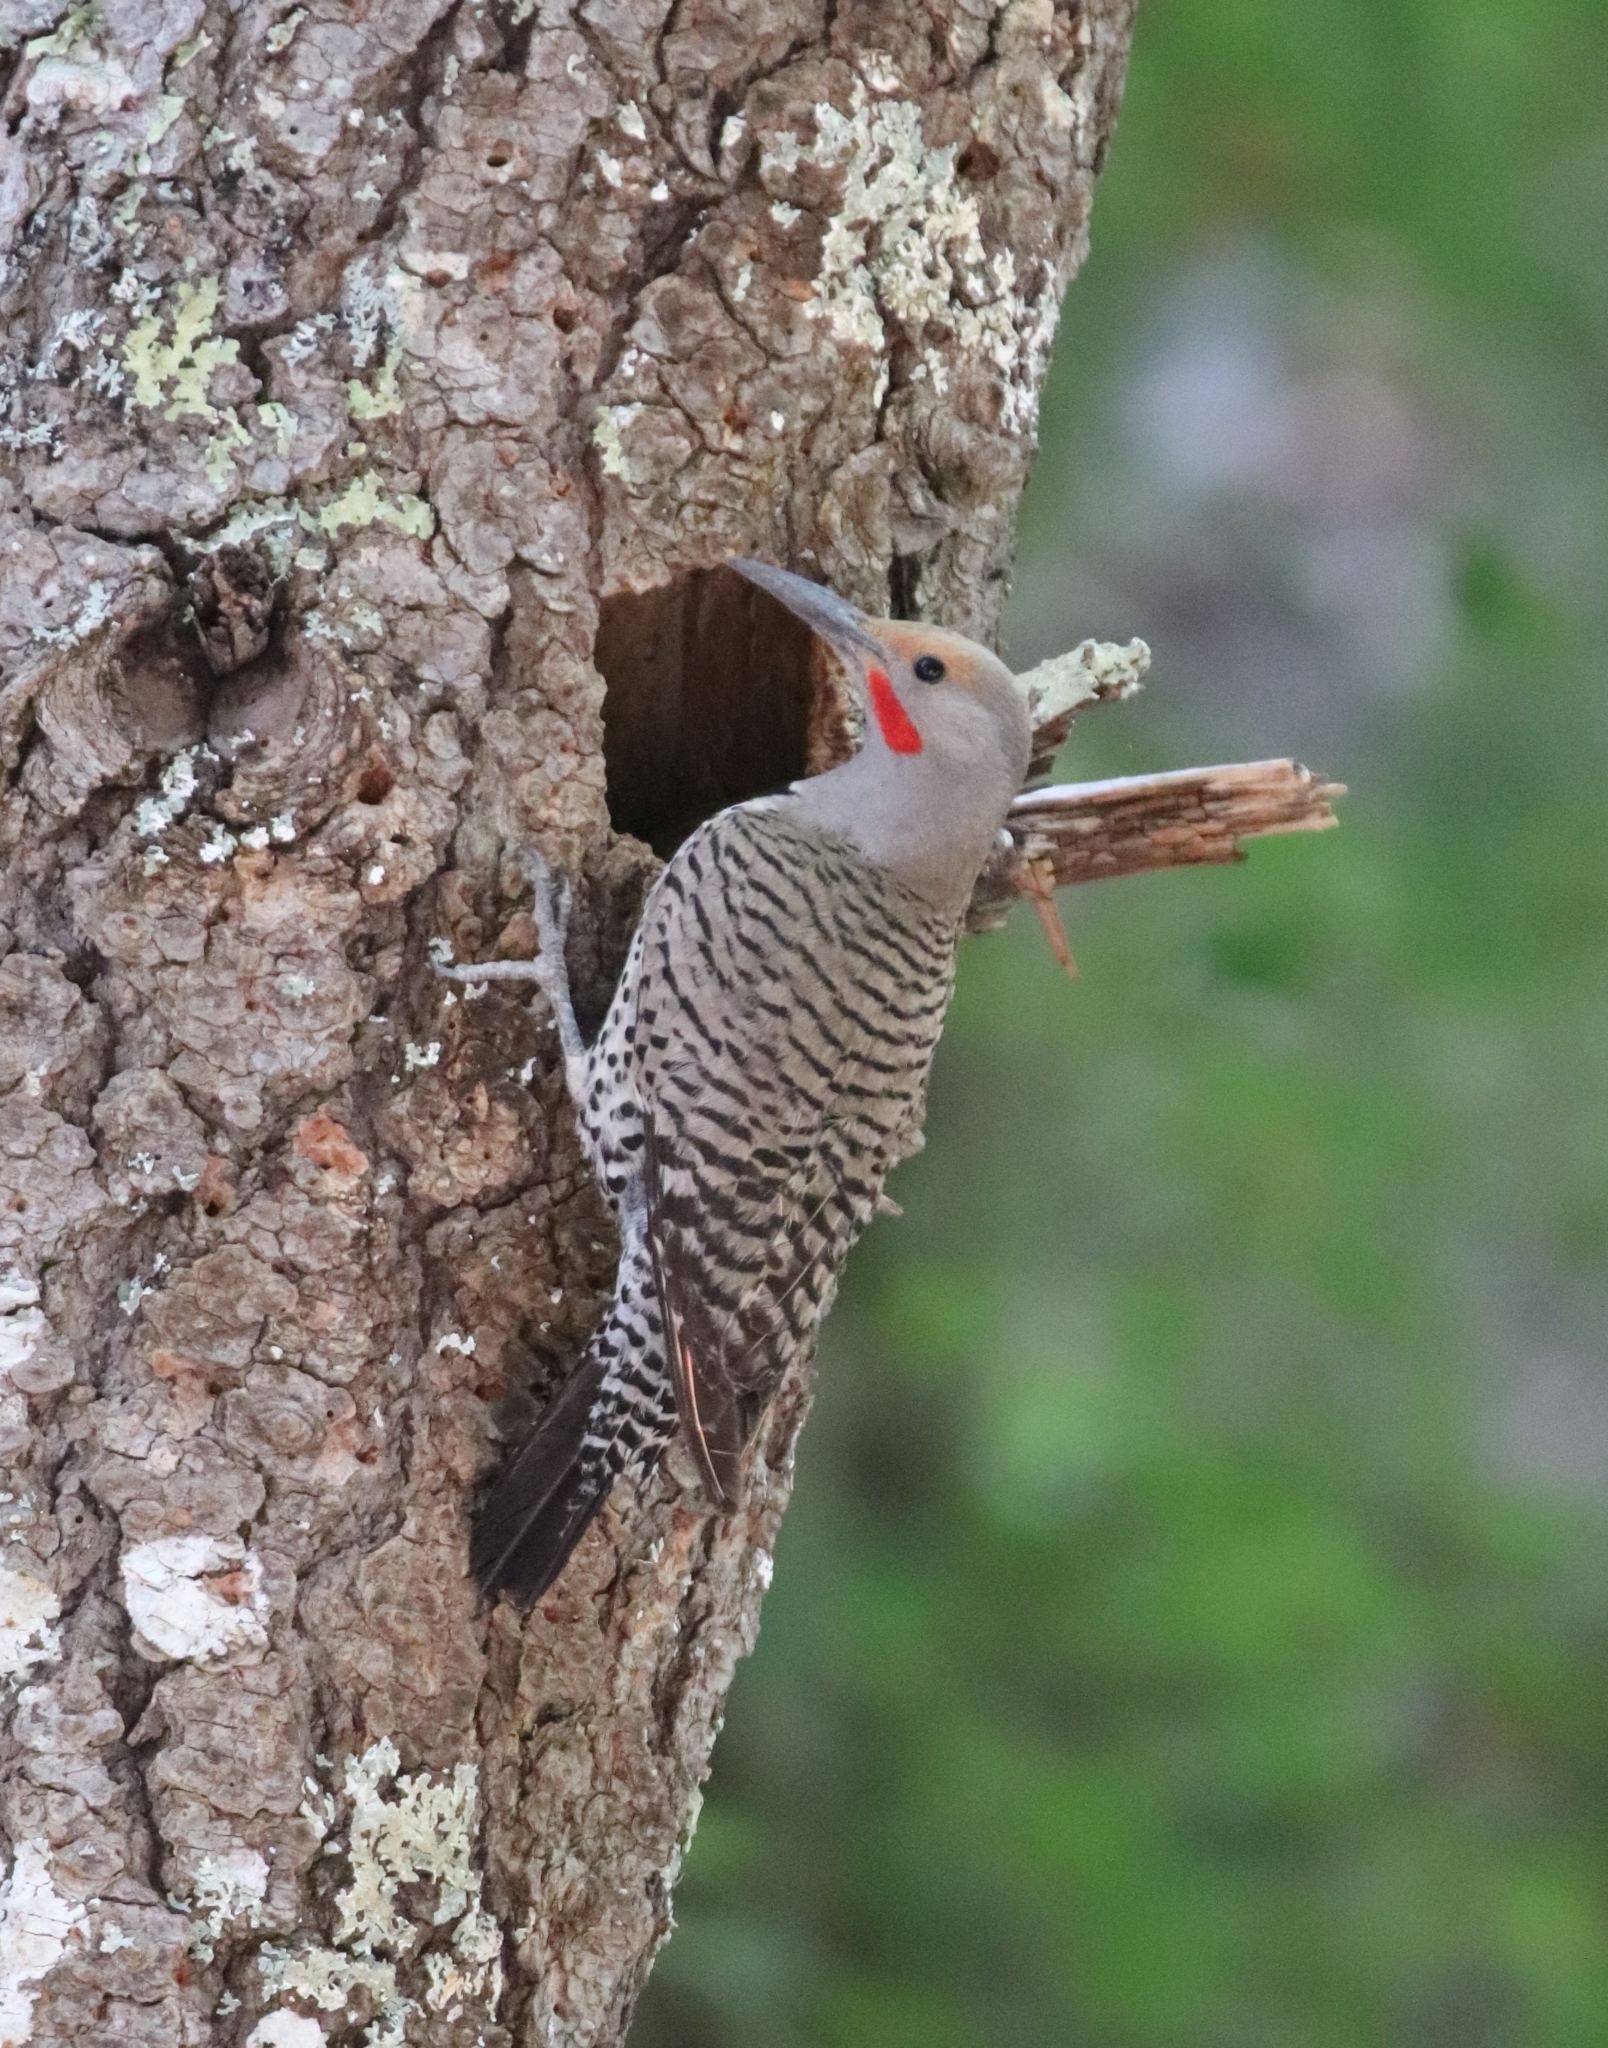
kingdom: Animalia
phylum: Chordata
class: Aves
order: Piciformes
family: Picidae
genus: Colaptes
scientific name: Colaptes auratus
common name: Northern flicker
